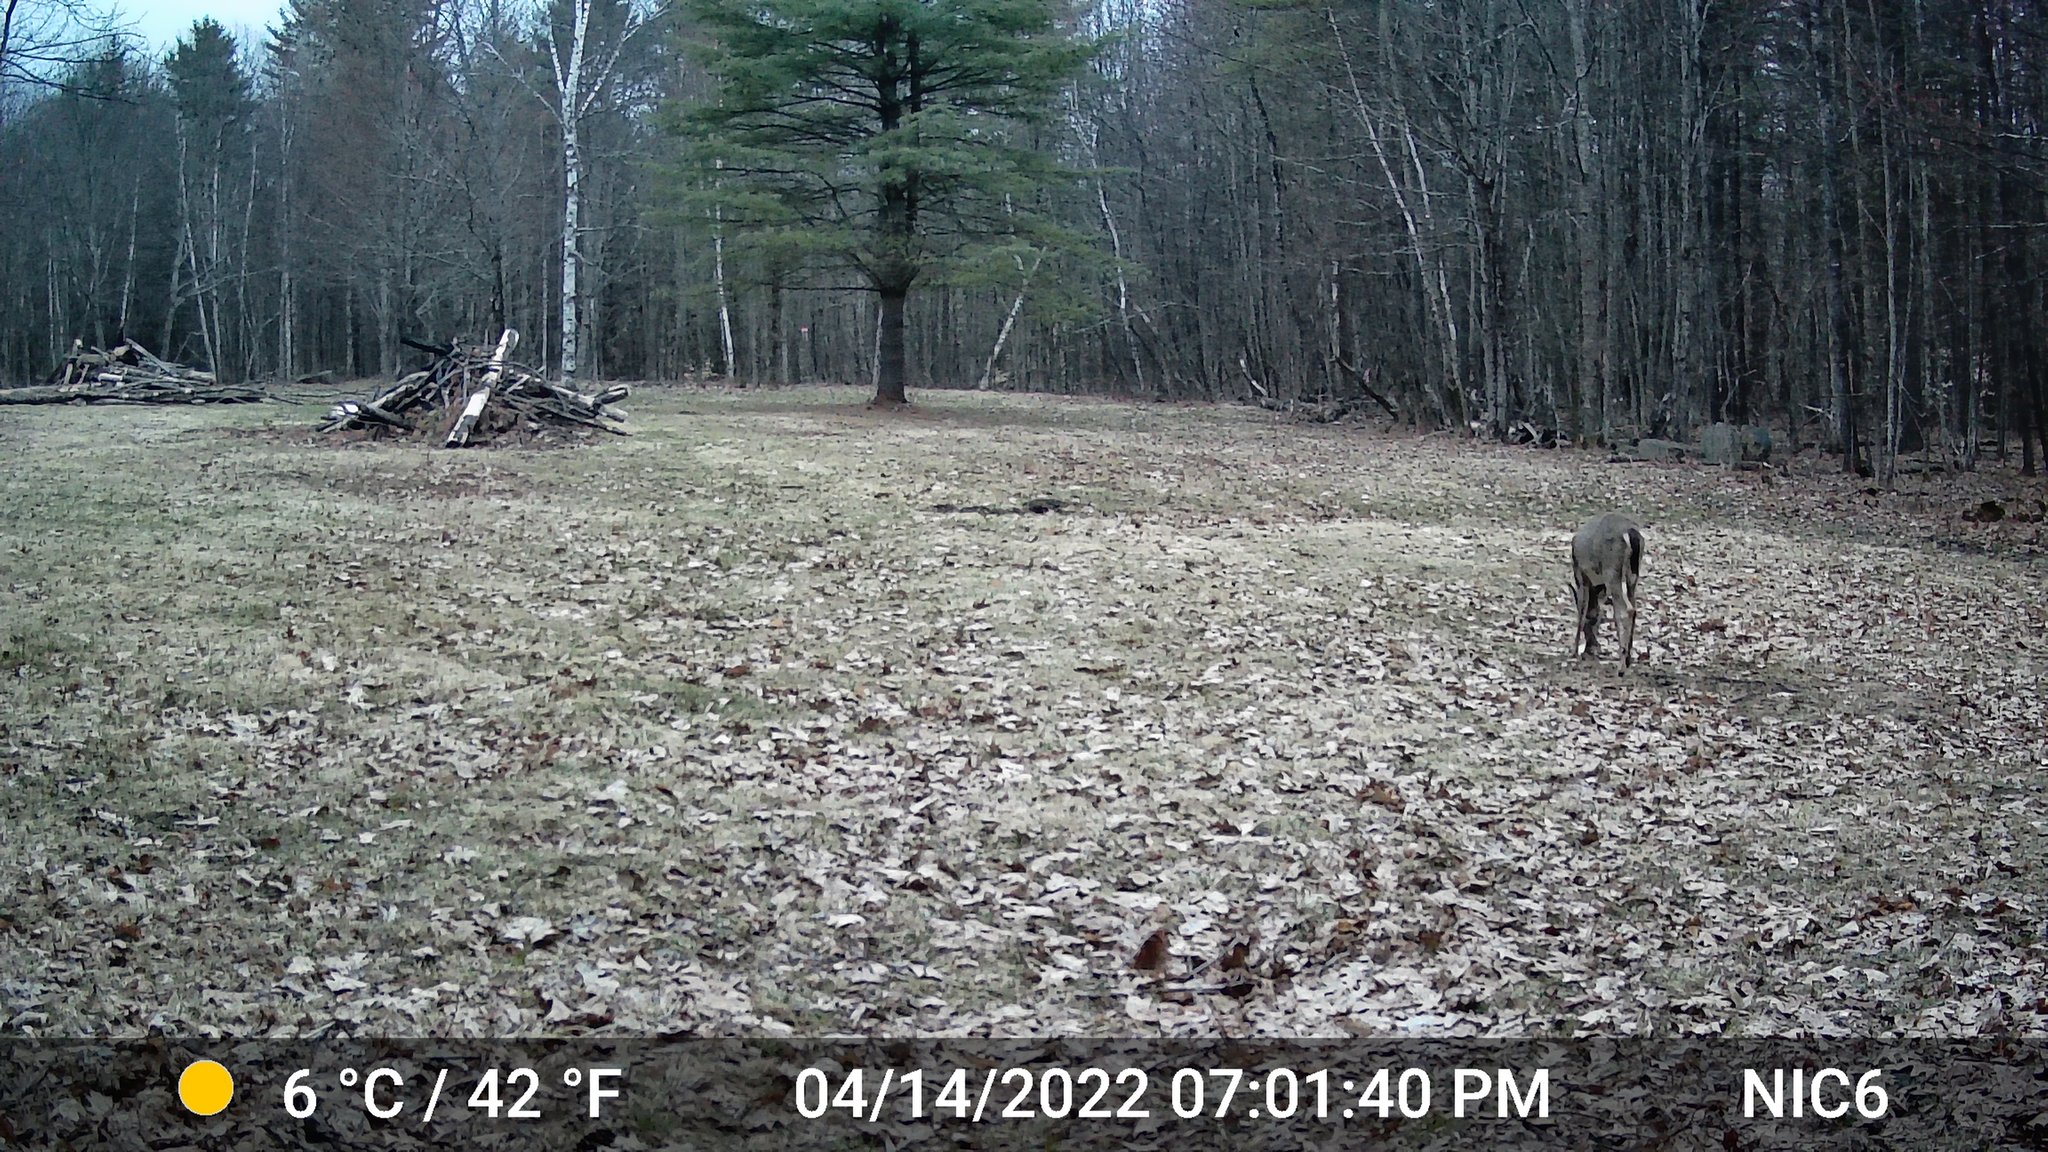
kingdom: Animalia
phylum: Chordata
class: Mammalia
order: Artiodactyla
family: Cervidae
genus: Odocoileus
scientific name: Odocoileus virginianus
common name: White-tailed deer
